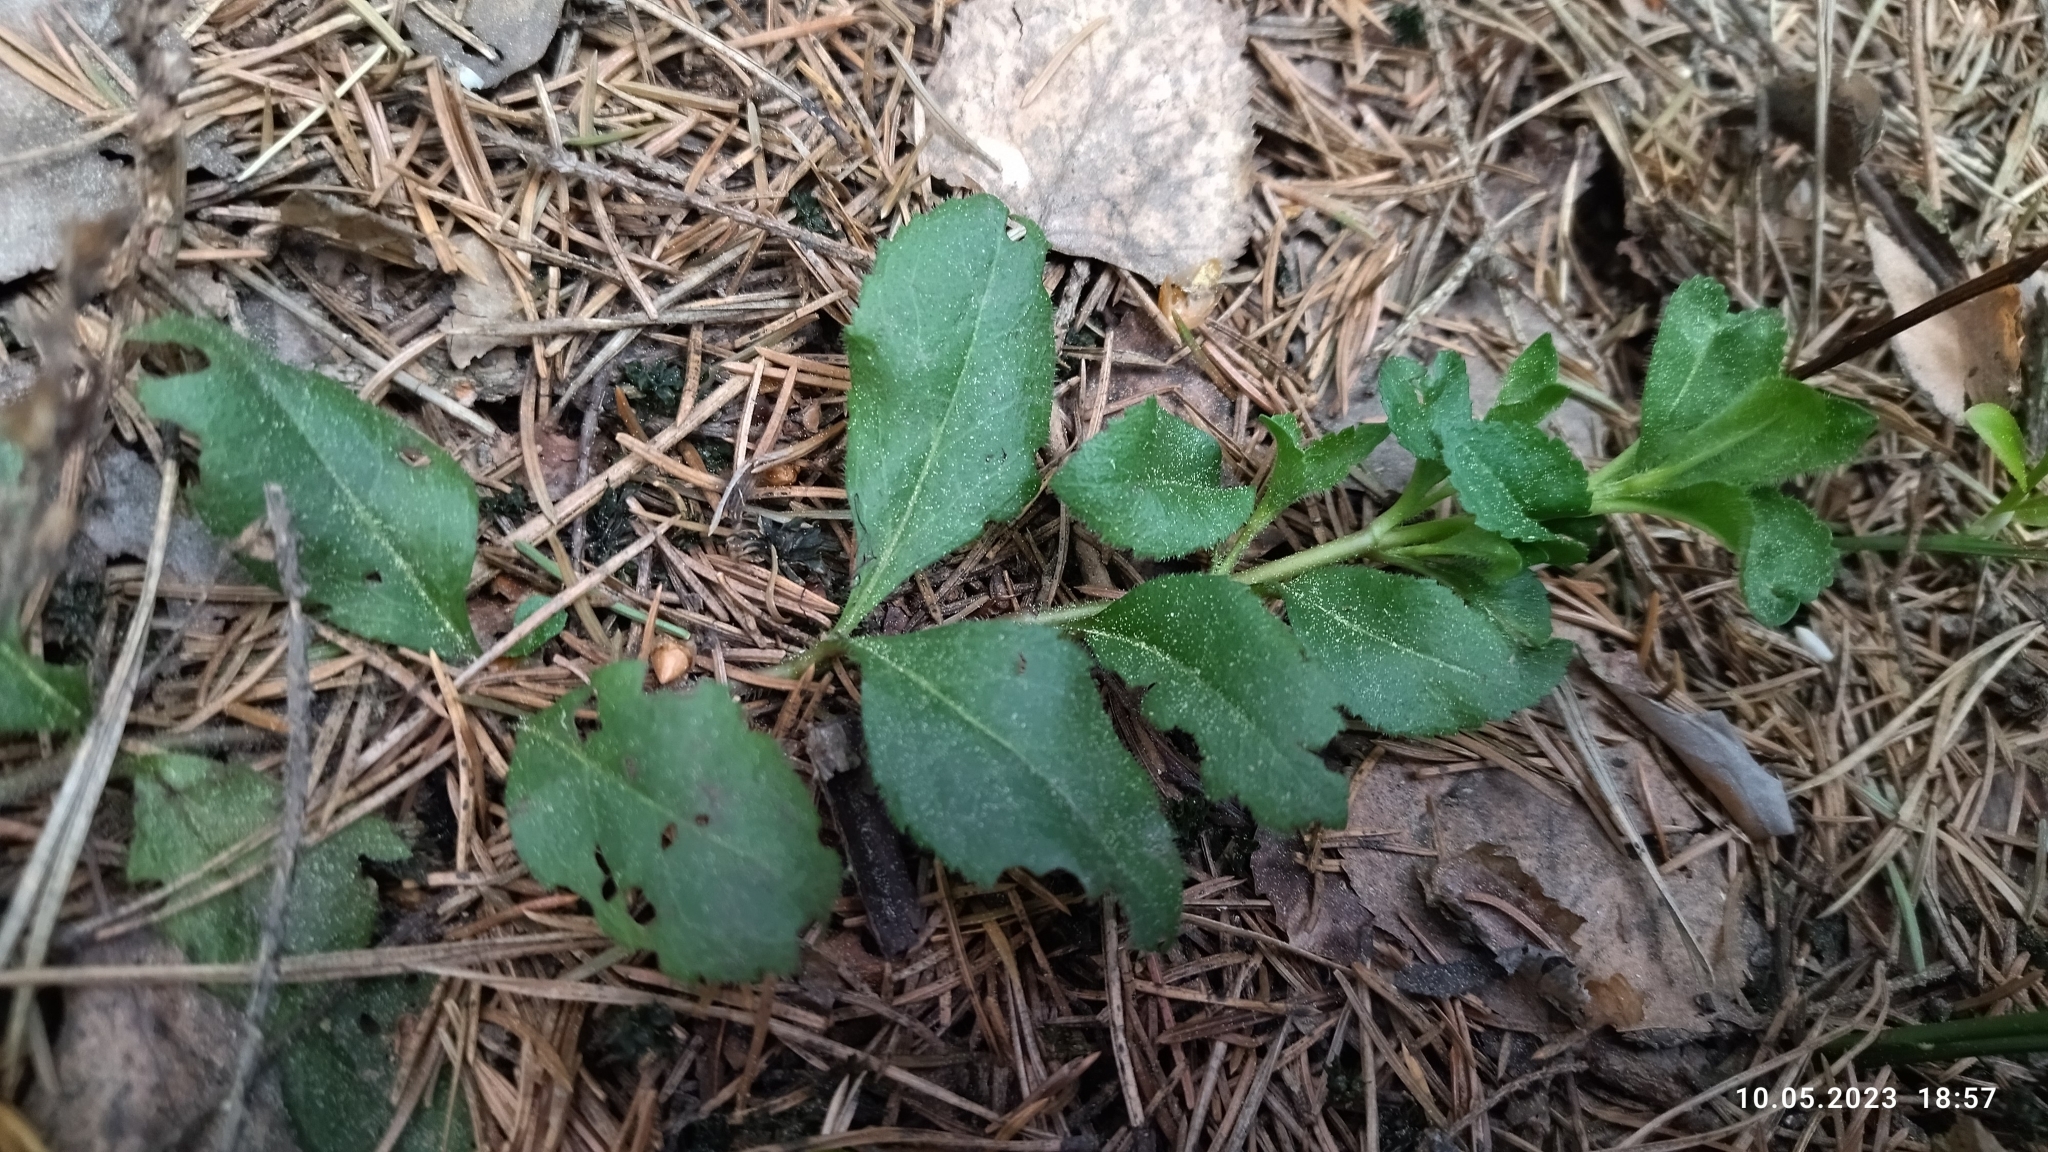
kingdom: Plantae
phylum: Tracheophyta
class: Magnoliopsida
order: Lamiales
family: Plantaginaceae
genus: Veronica
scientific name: Veronica officinalis
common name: Common speedwell
